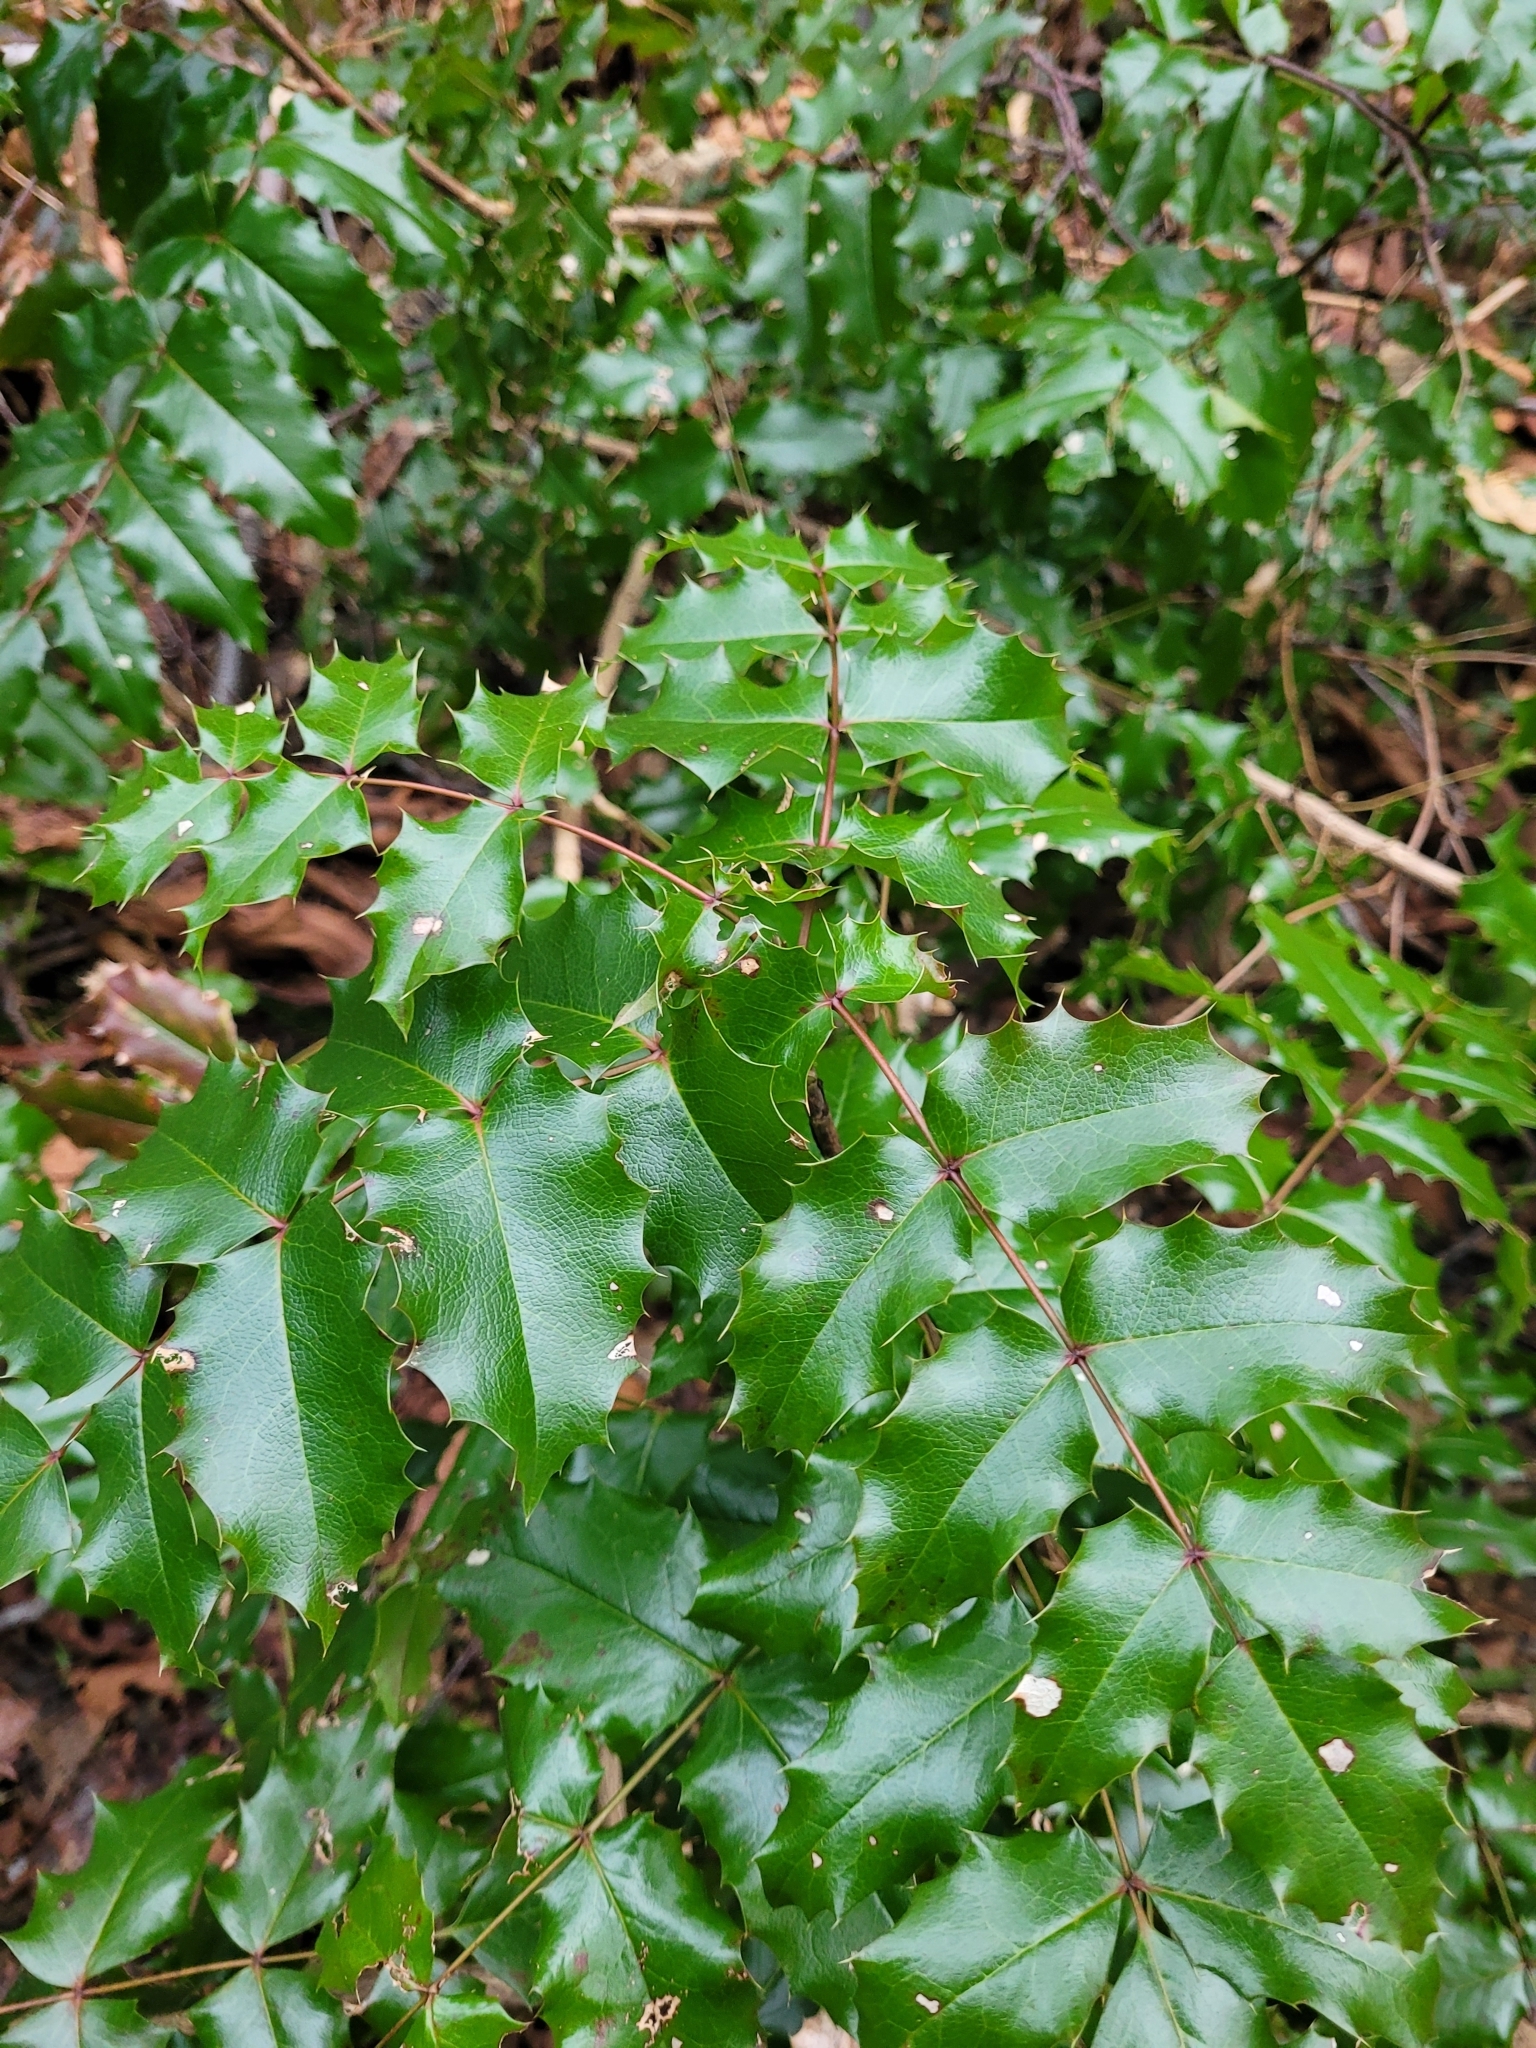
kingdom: Plantae
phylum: Tracheophyta
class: Magnoliopsida
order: Ranunculales
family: Berberidaceae
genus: Mahonia
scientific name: Mahonia aquifolium
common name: Oregon-grape
